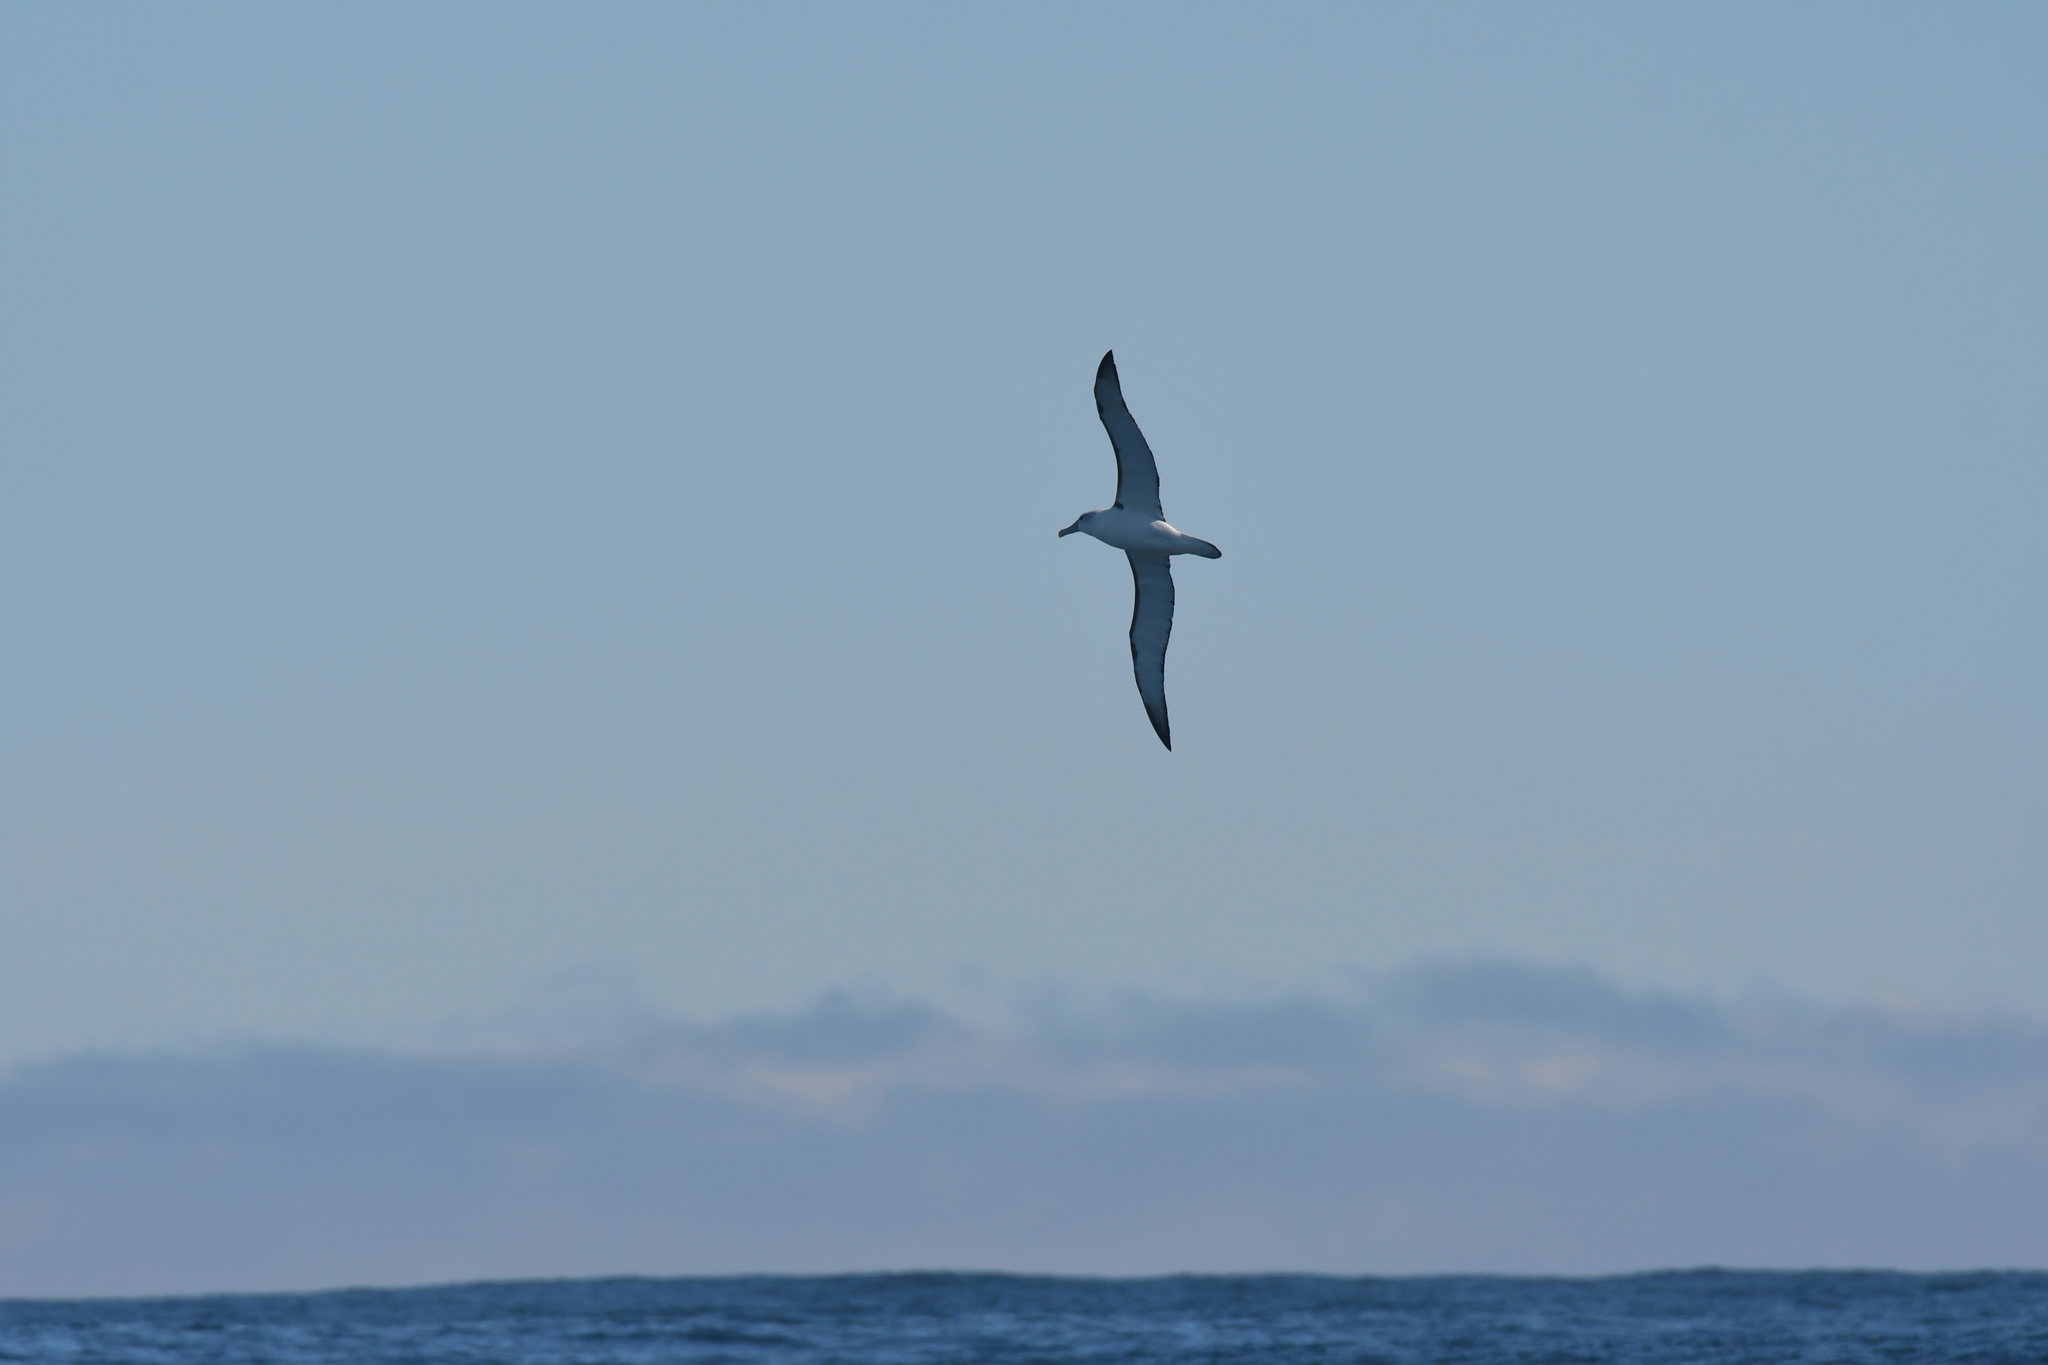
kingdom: Animalia
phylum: Chordata
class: Aves
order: Procellariiformes
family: Diomedeidae
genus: Thalassarche
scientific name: Thalassarche cauta
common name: Shy albatross
